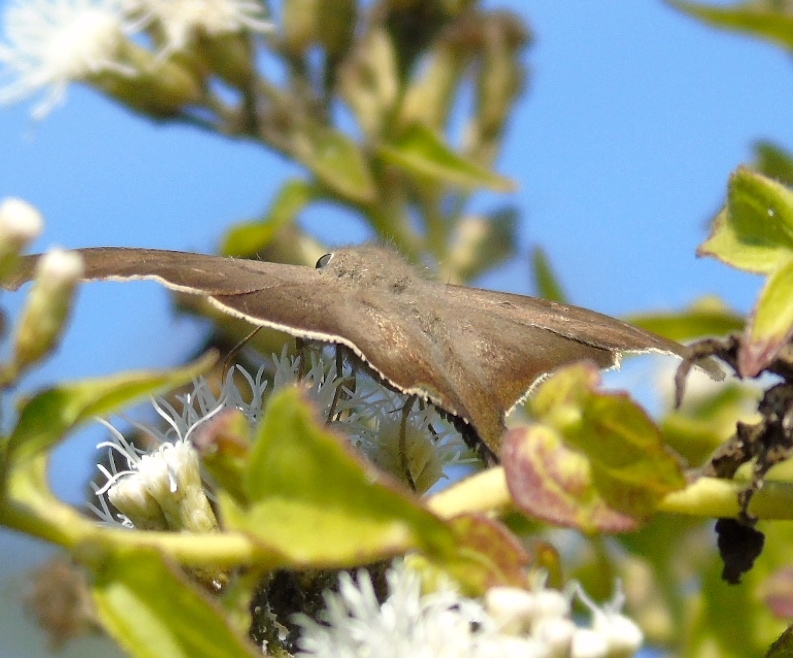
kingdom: Animalia
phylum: Arthropoda
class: Insecta
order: Lepidoptera
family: Hesperiidae
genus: Ectomis
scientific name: Ectomis
